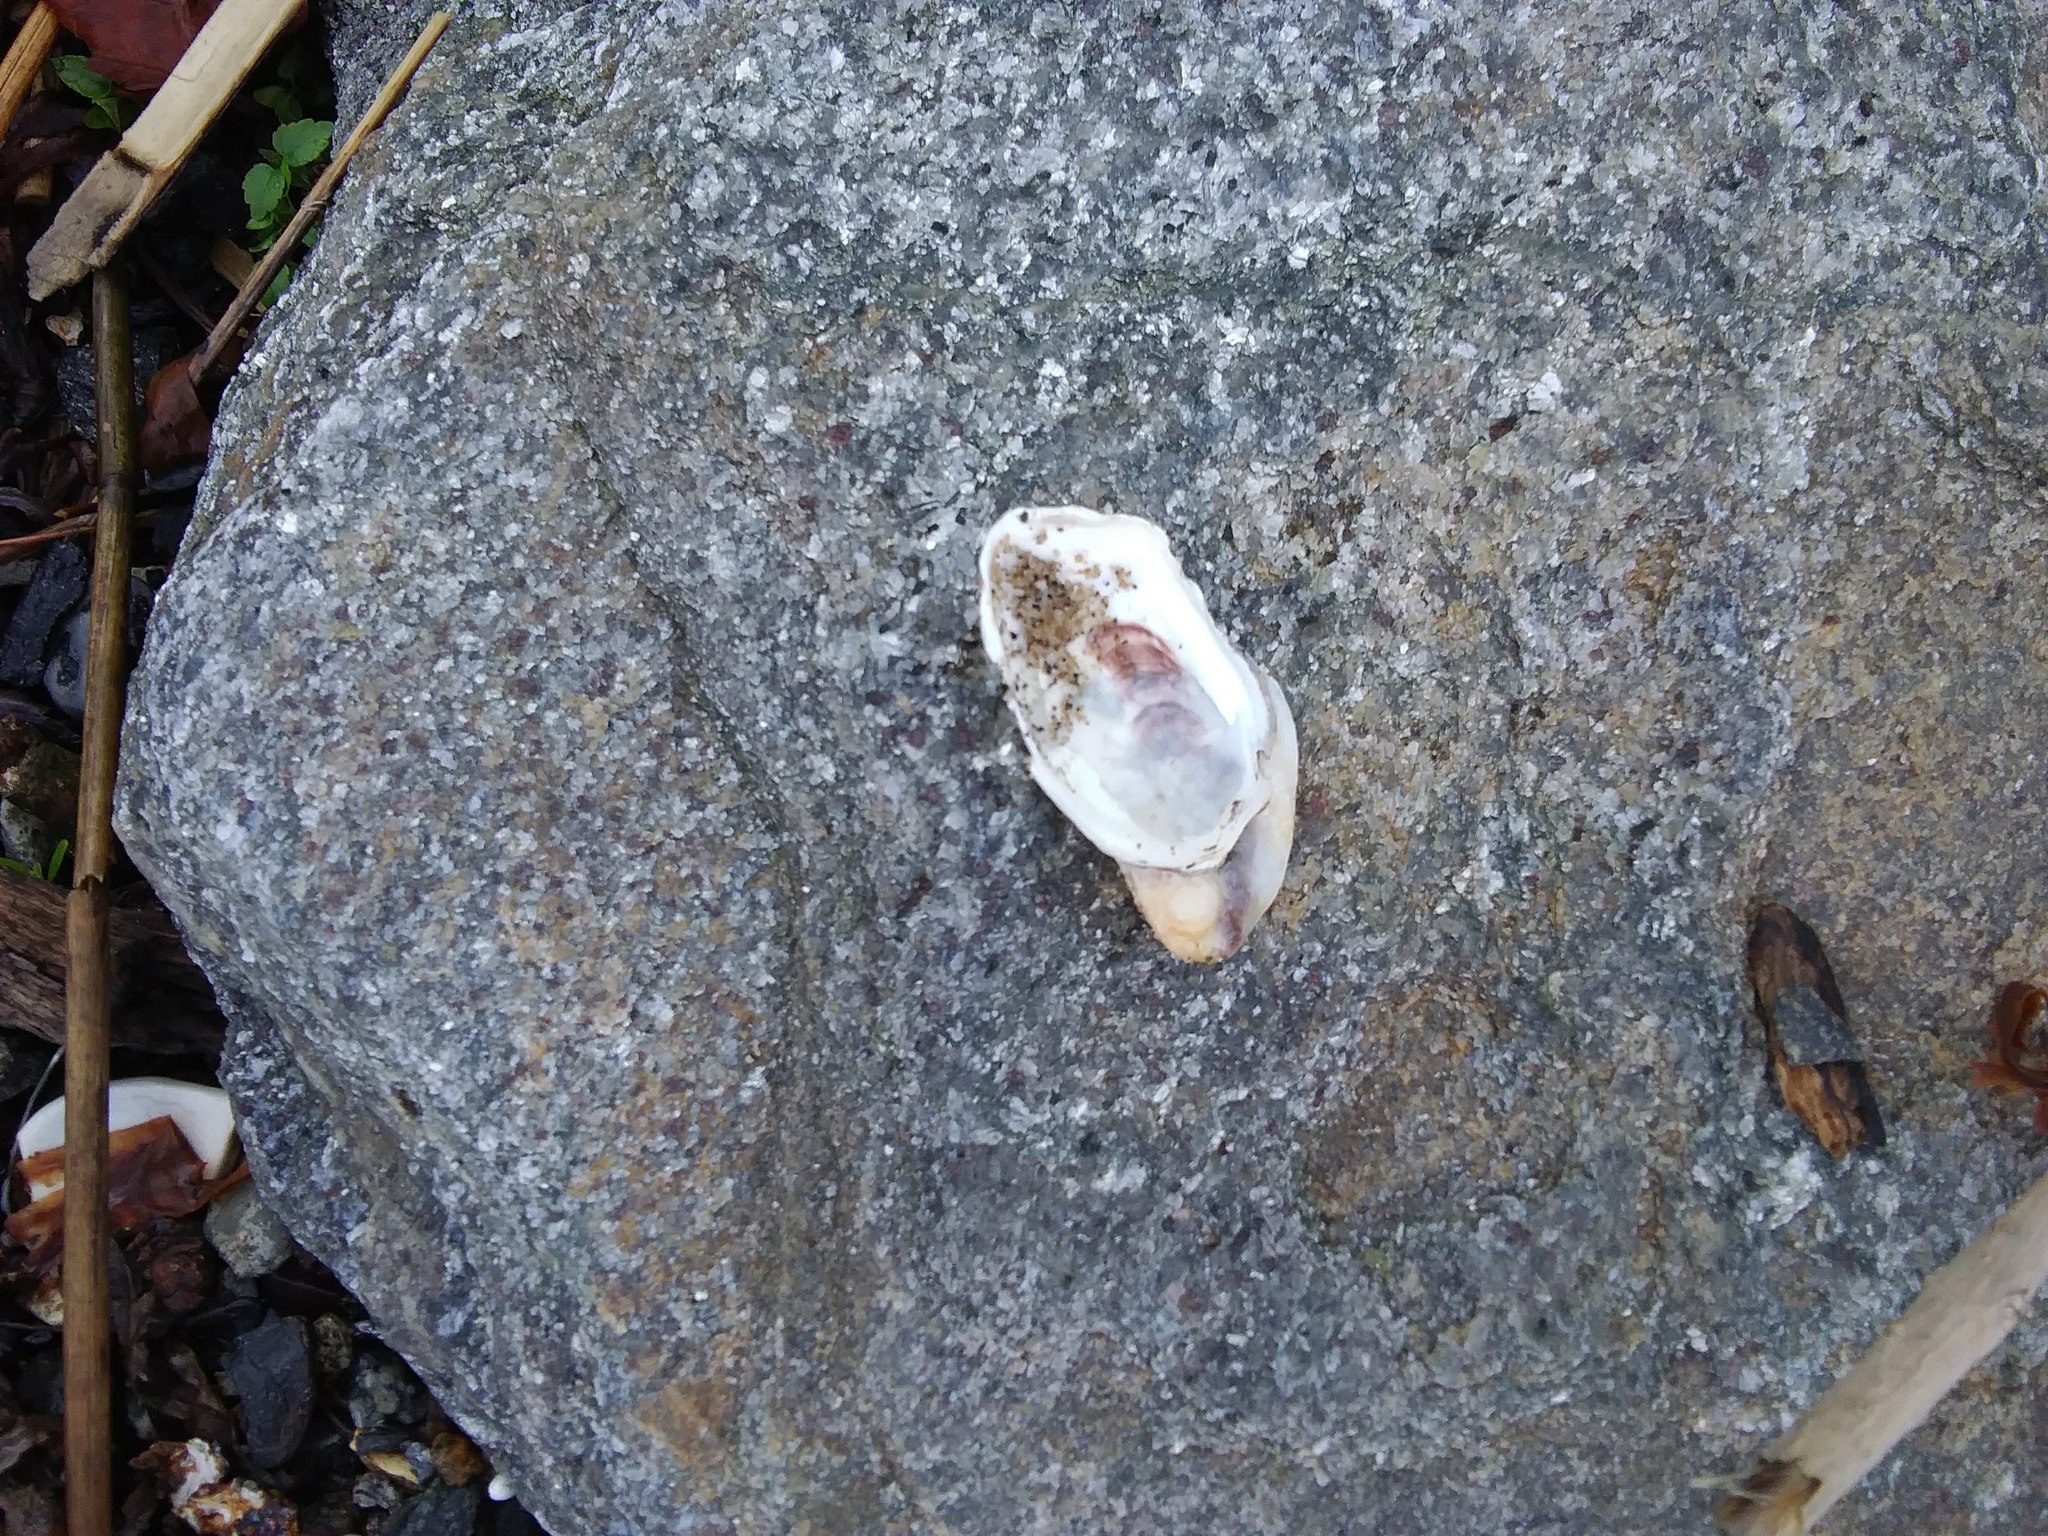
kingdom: Animalia
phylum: Mollusca
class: Bivalvia
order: Ostreida
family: Ostreidae
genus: Crassostrea
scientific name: Crassostrea virginica
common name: American oyster
